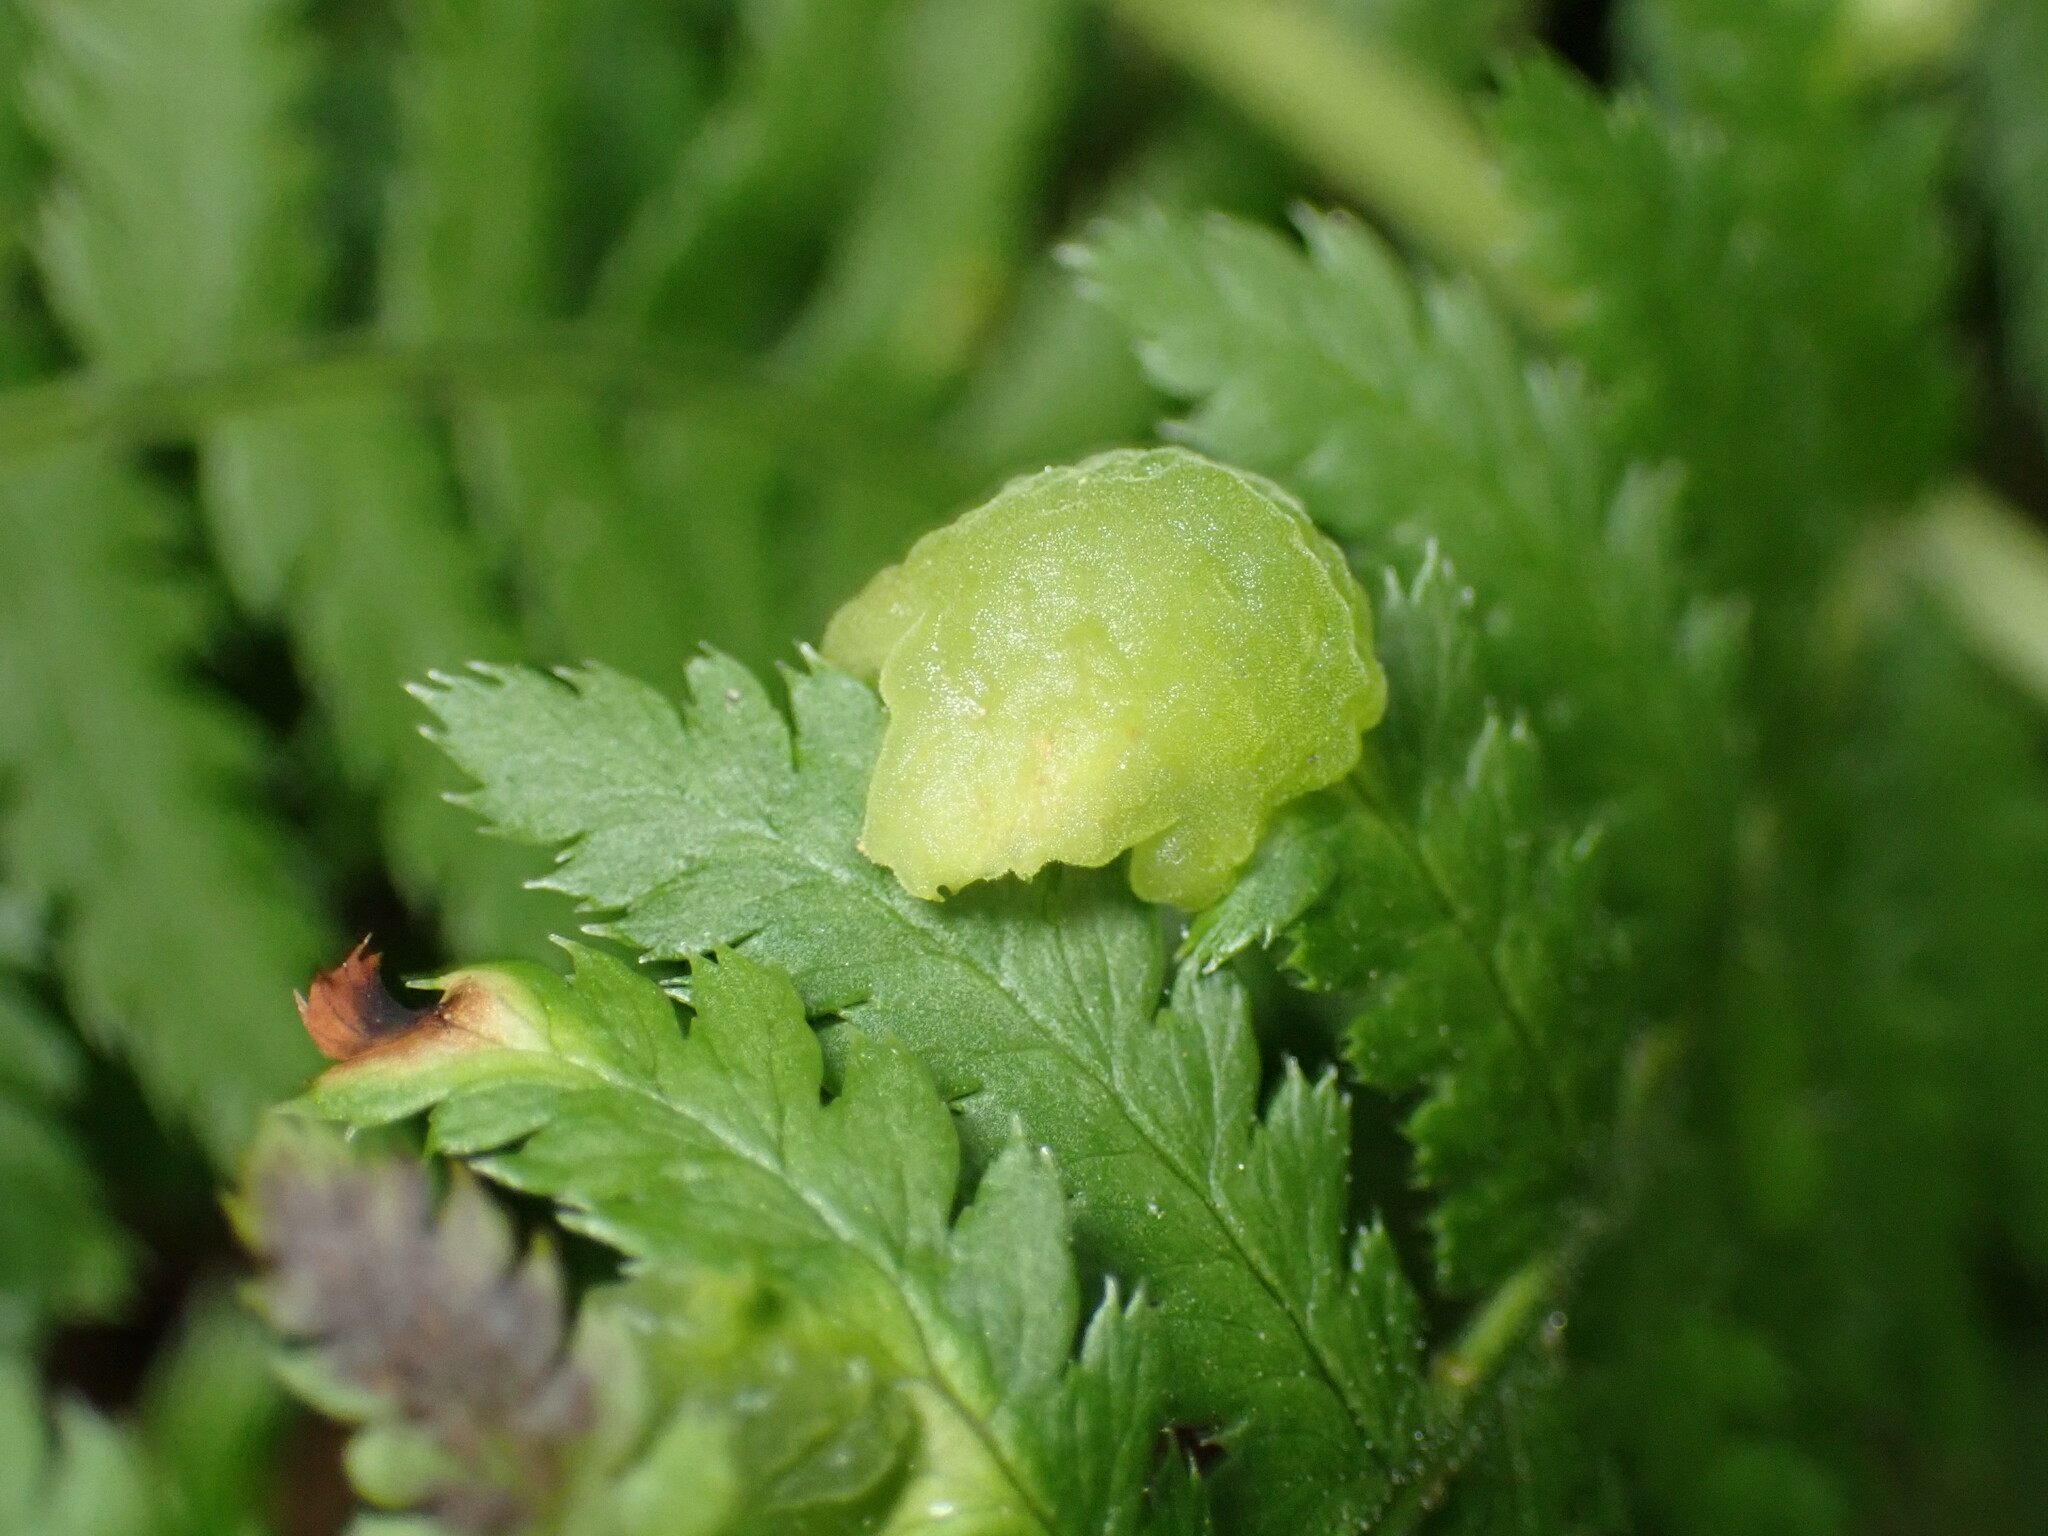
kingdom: Fungi
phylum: Ascomycota
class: Taphrinomycetes
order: Taphrinales
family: Taphrinaceae
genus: Taphrina
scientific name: Taphrina californica
